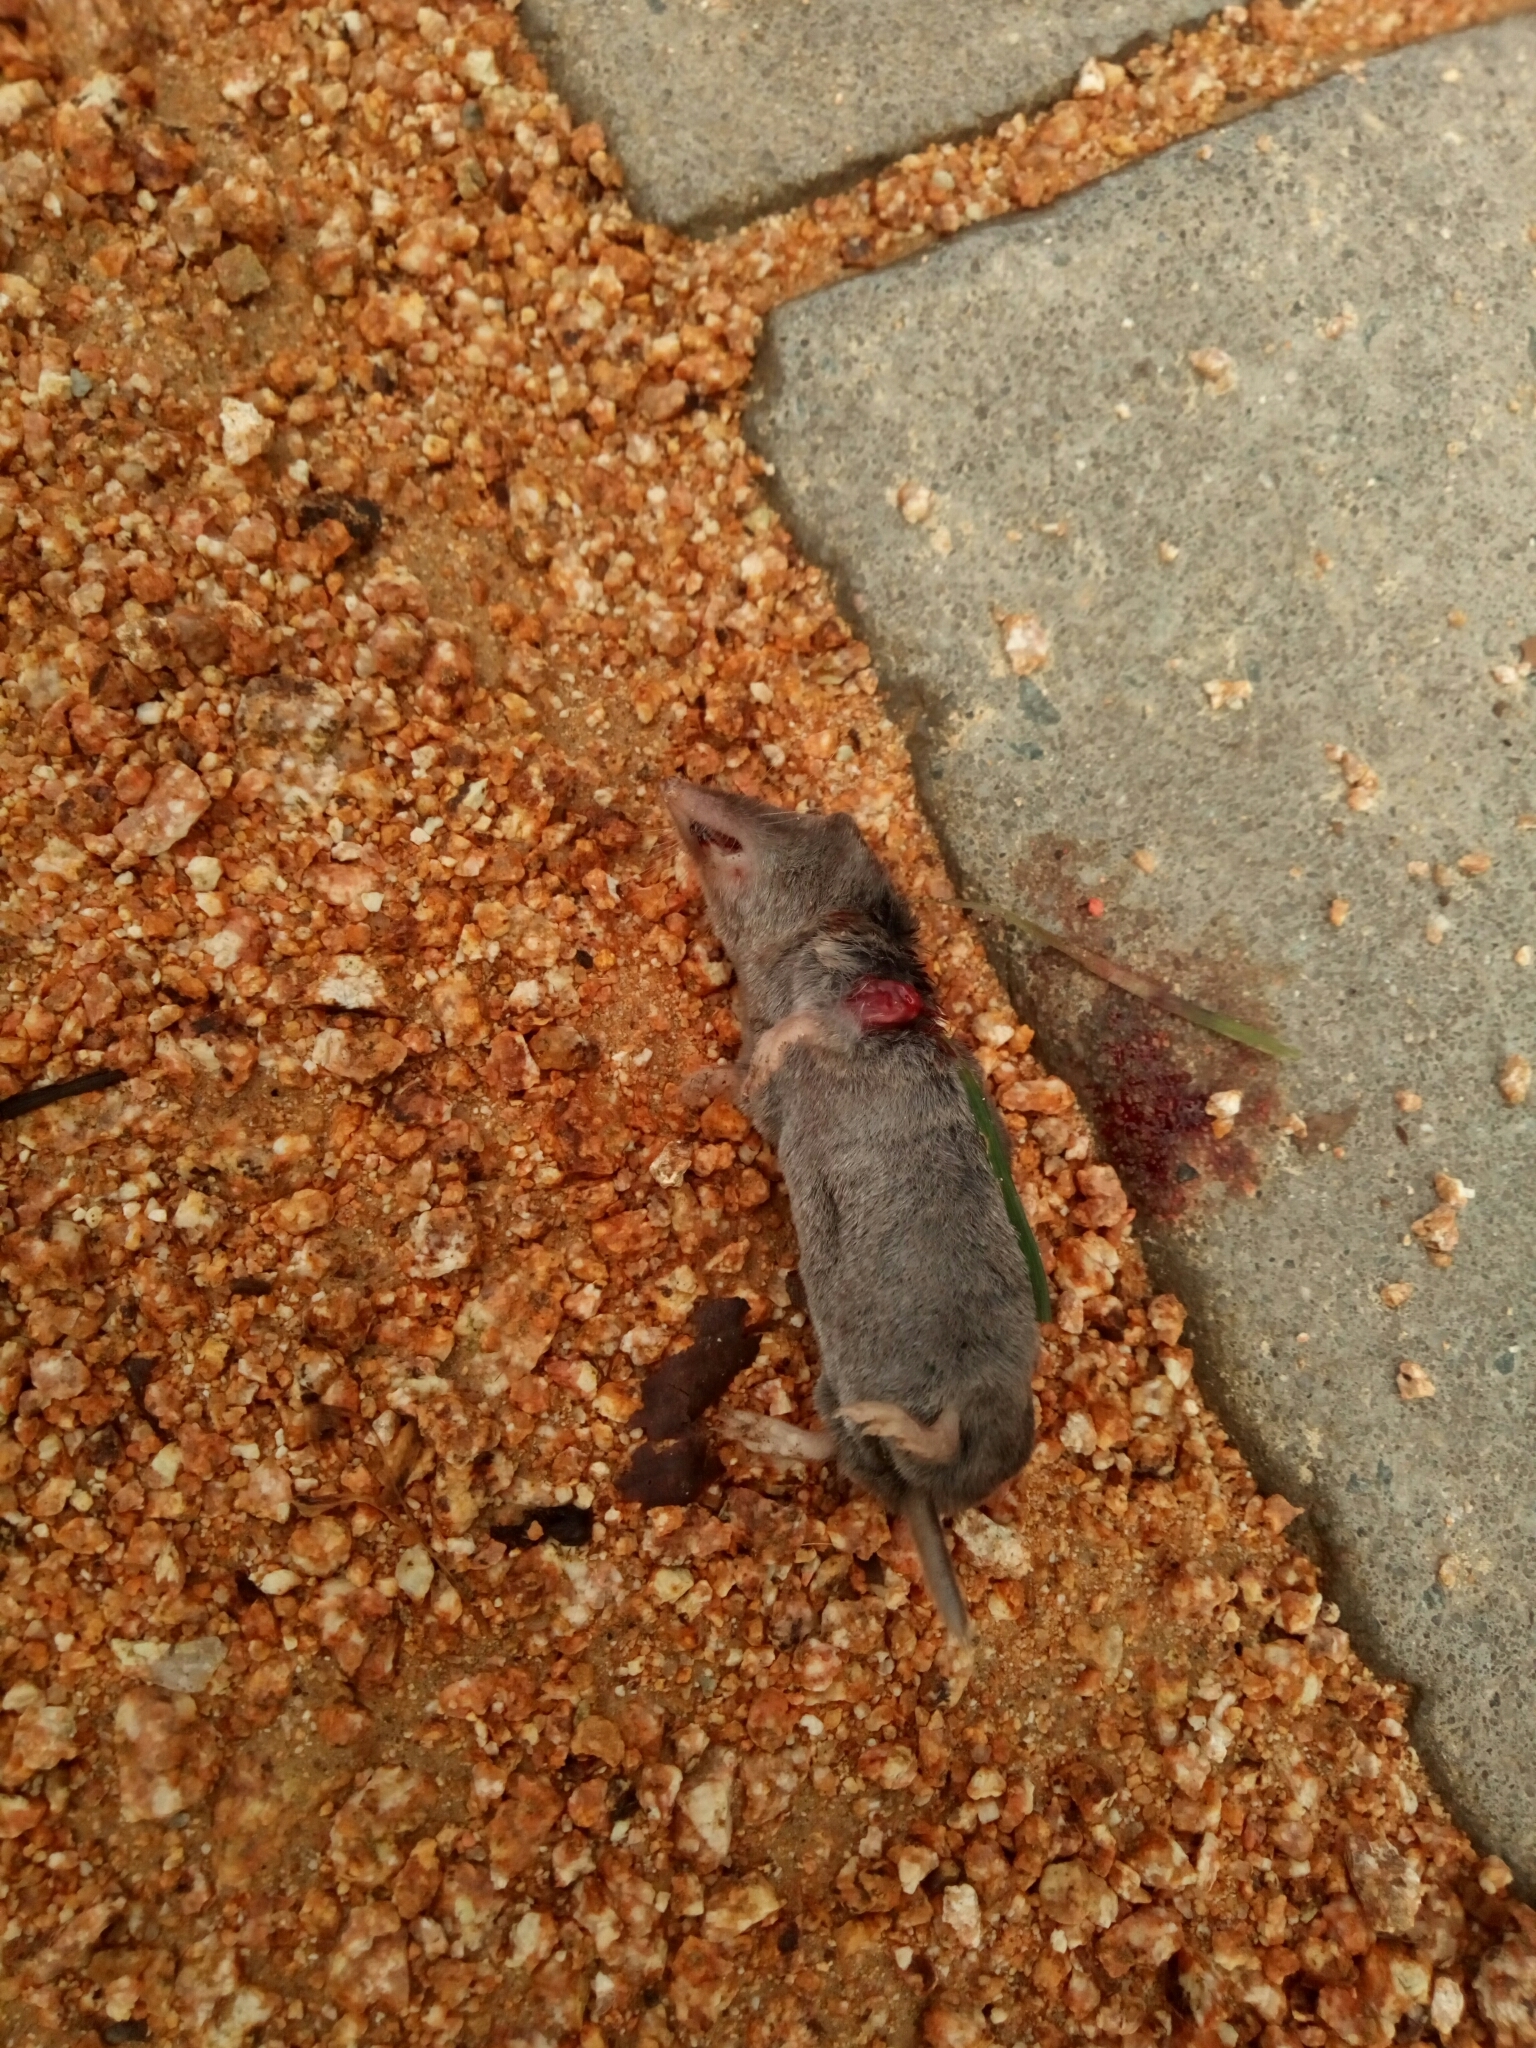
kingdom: Animalia
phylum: Chordata
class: Mammalia
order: Soricomorpha
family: Soricidae
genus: Blarina
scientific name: Blarina carolinensis
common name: Southern short-tailed shrew
